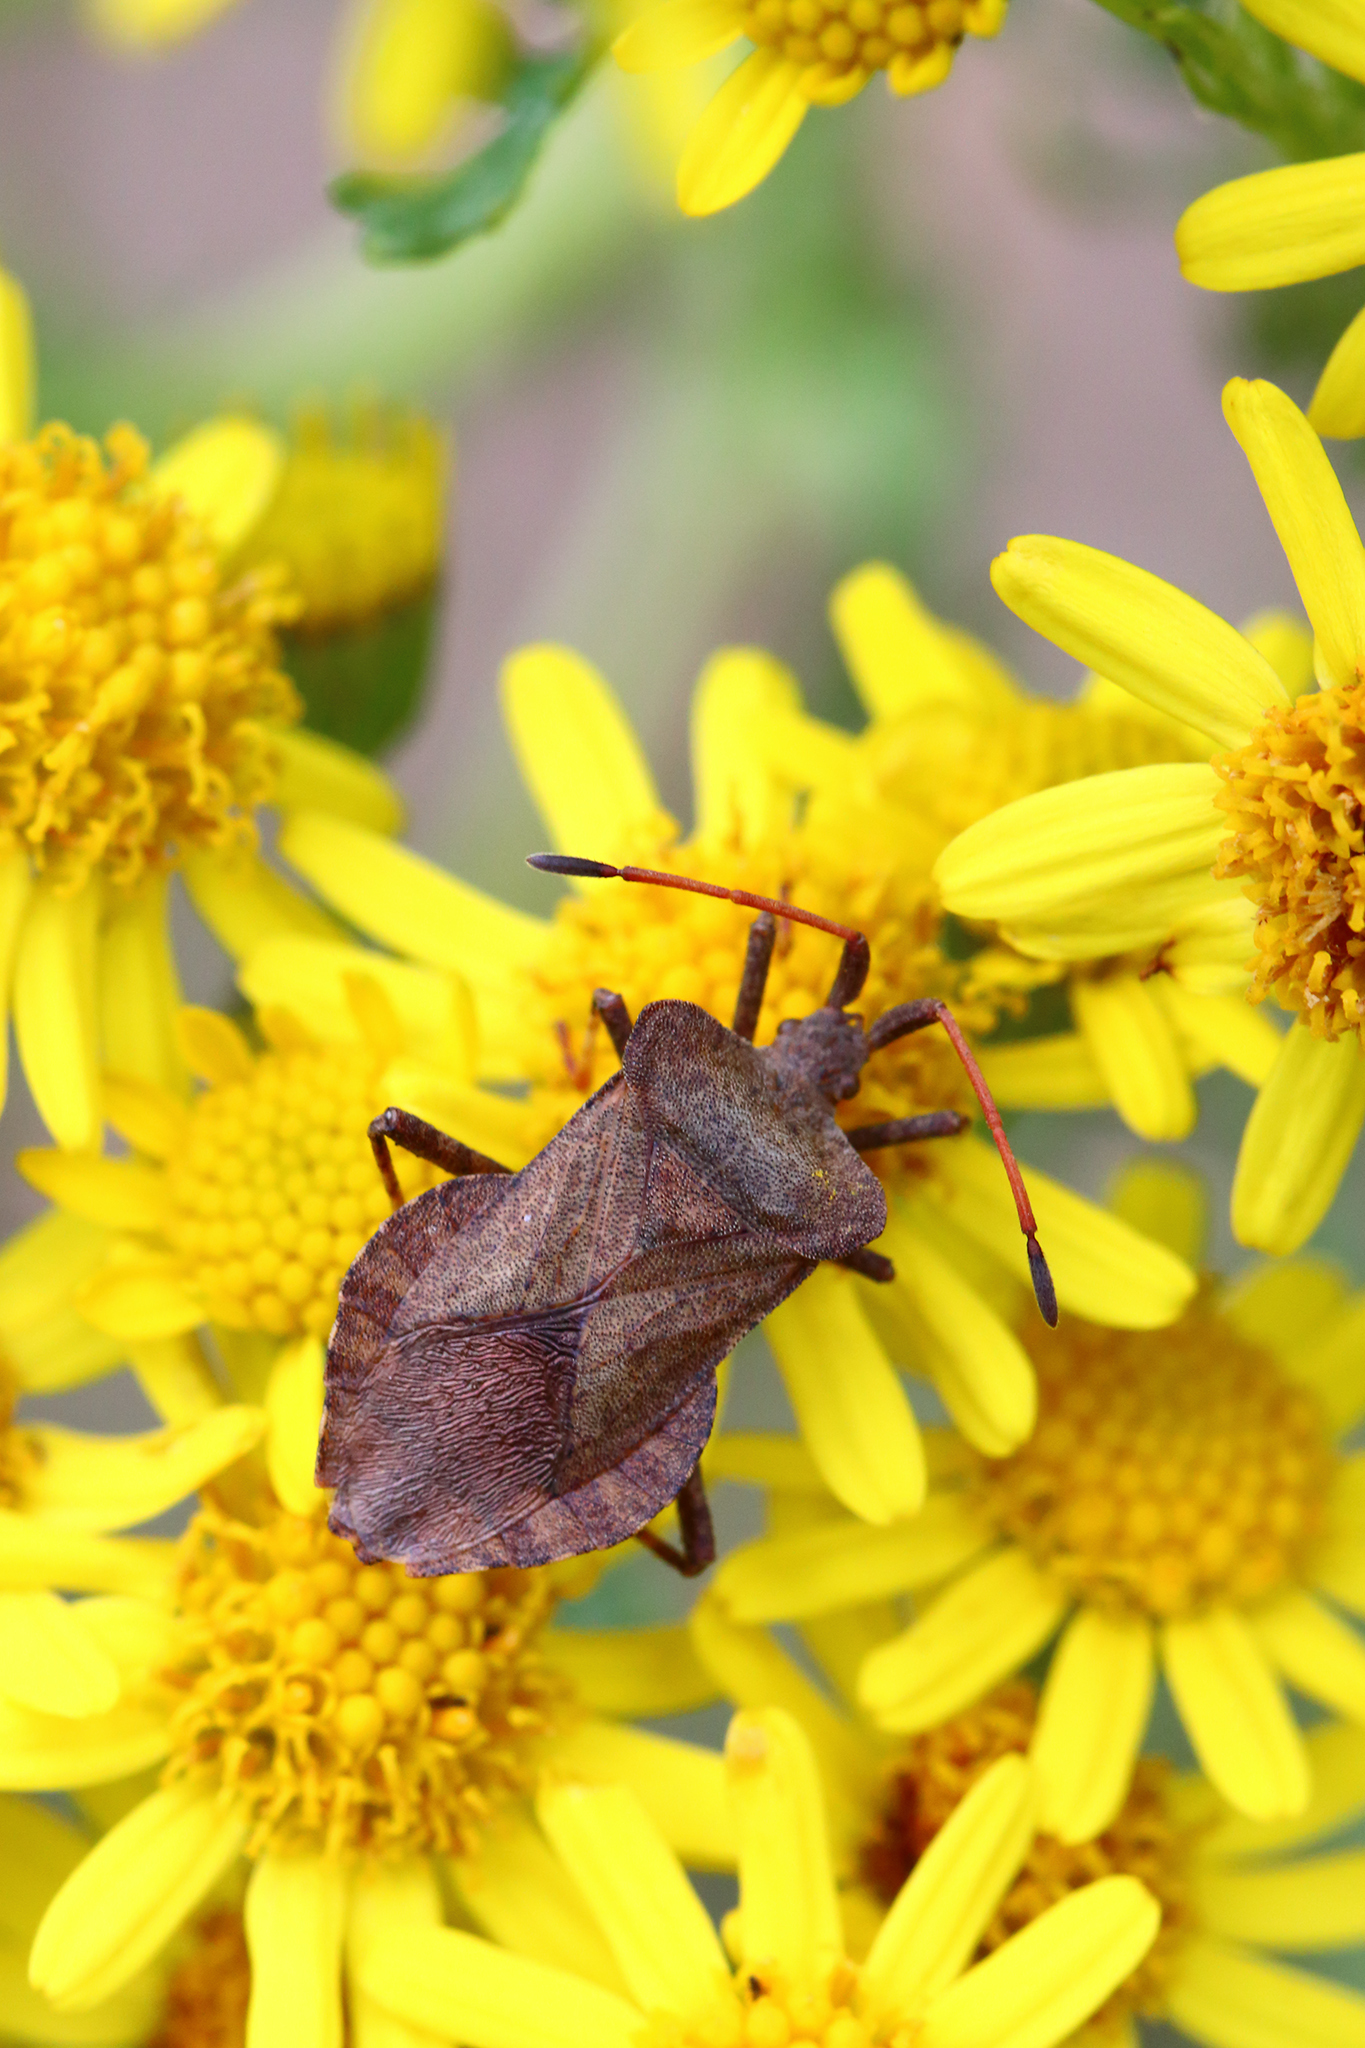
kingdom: Animalia
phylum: Arthropoda
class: Insecta
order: Hemiptera
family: Coreidae
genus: Coreus
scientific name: Coreus marginatus
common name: Dock bug
